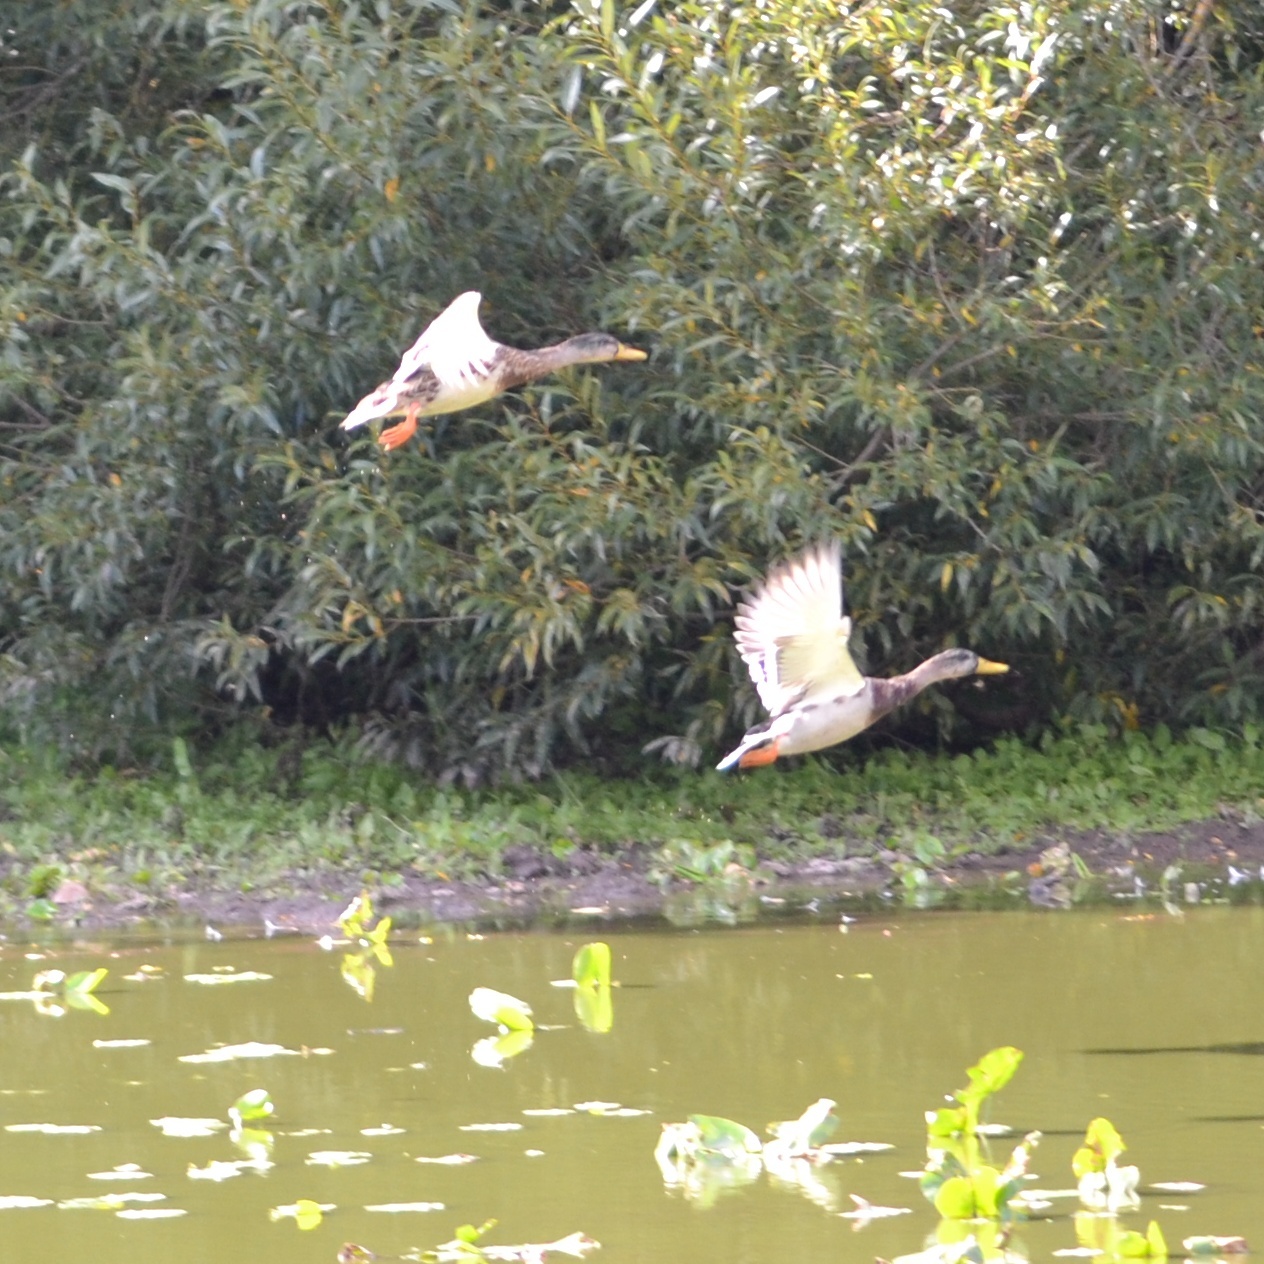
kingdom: Animalia
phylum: Chordata
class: Aves
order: Anseriformes
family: Anatidae
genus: Anas
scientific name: Anas platyrhynchos
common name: Mallard
